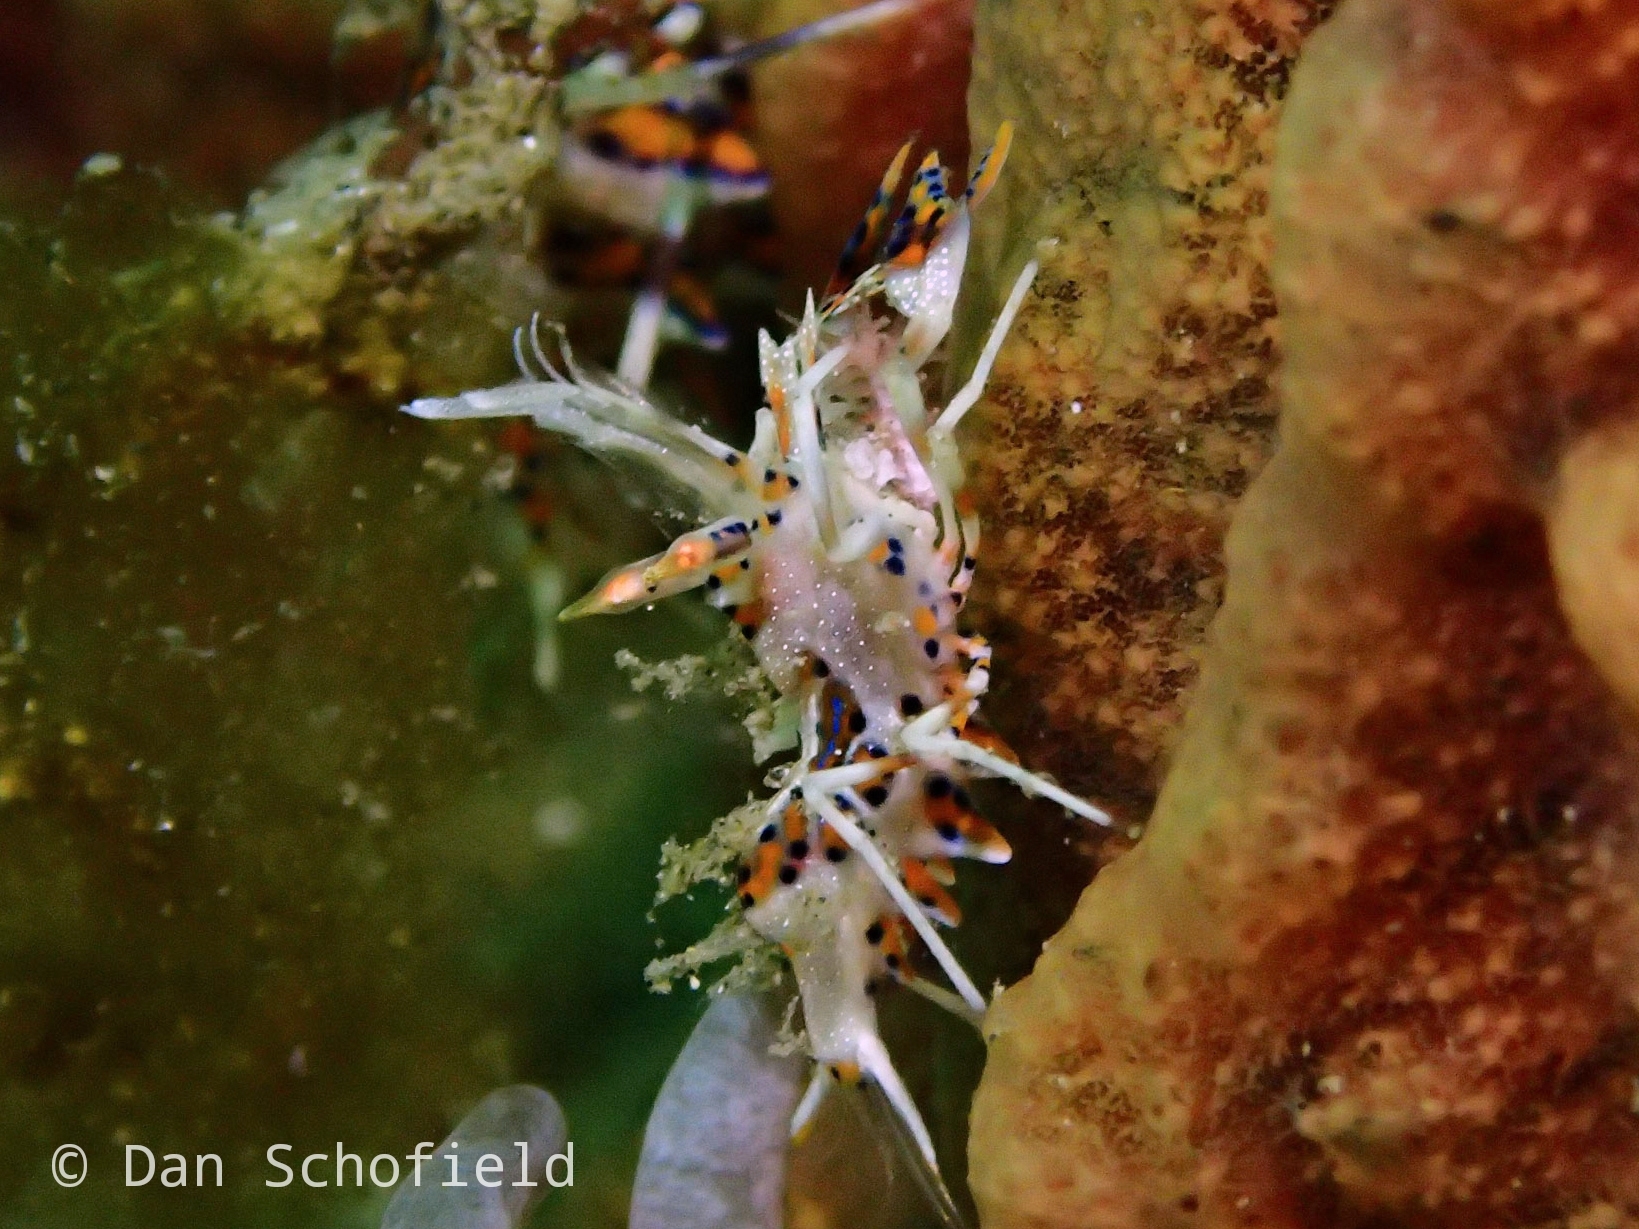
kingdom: Animalia
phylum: Arthropoda
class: Malacostraca
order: Decapoda
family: Palaemonidae
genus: Phyllognathia
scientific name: Phyllognathia ceratophthalma
